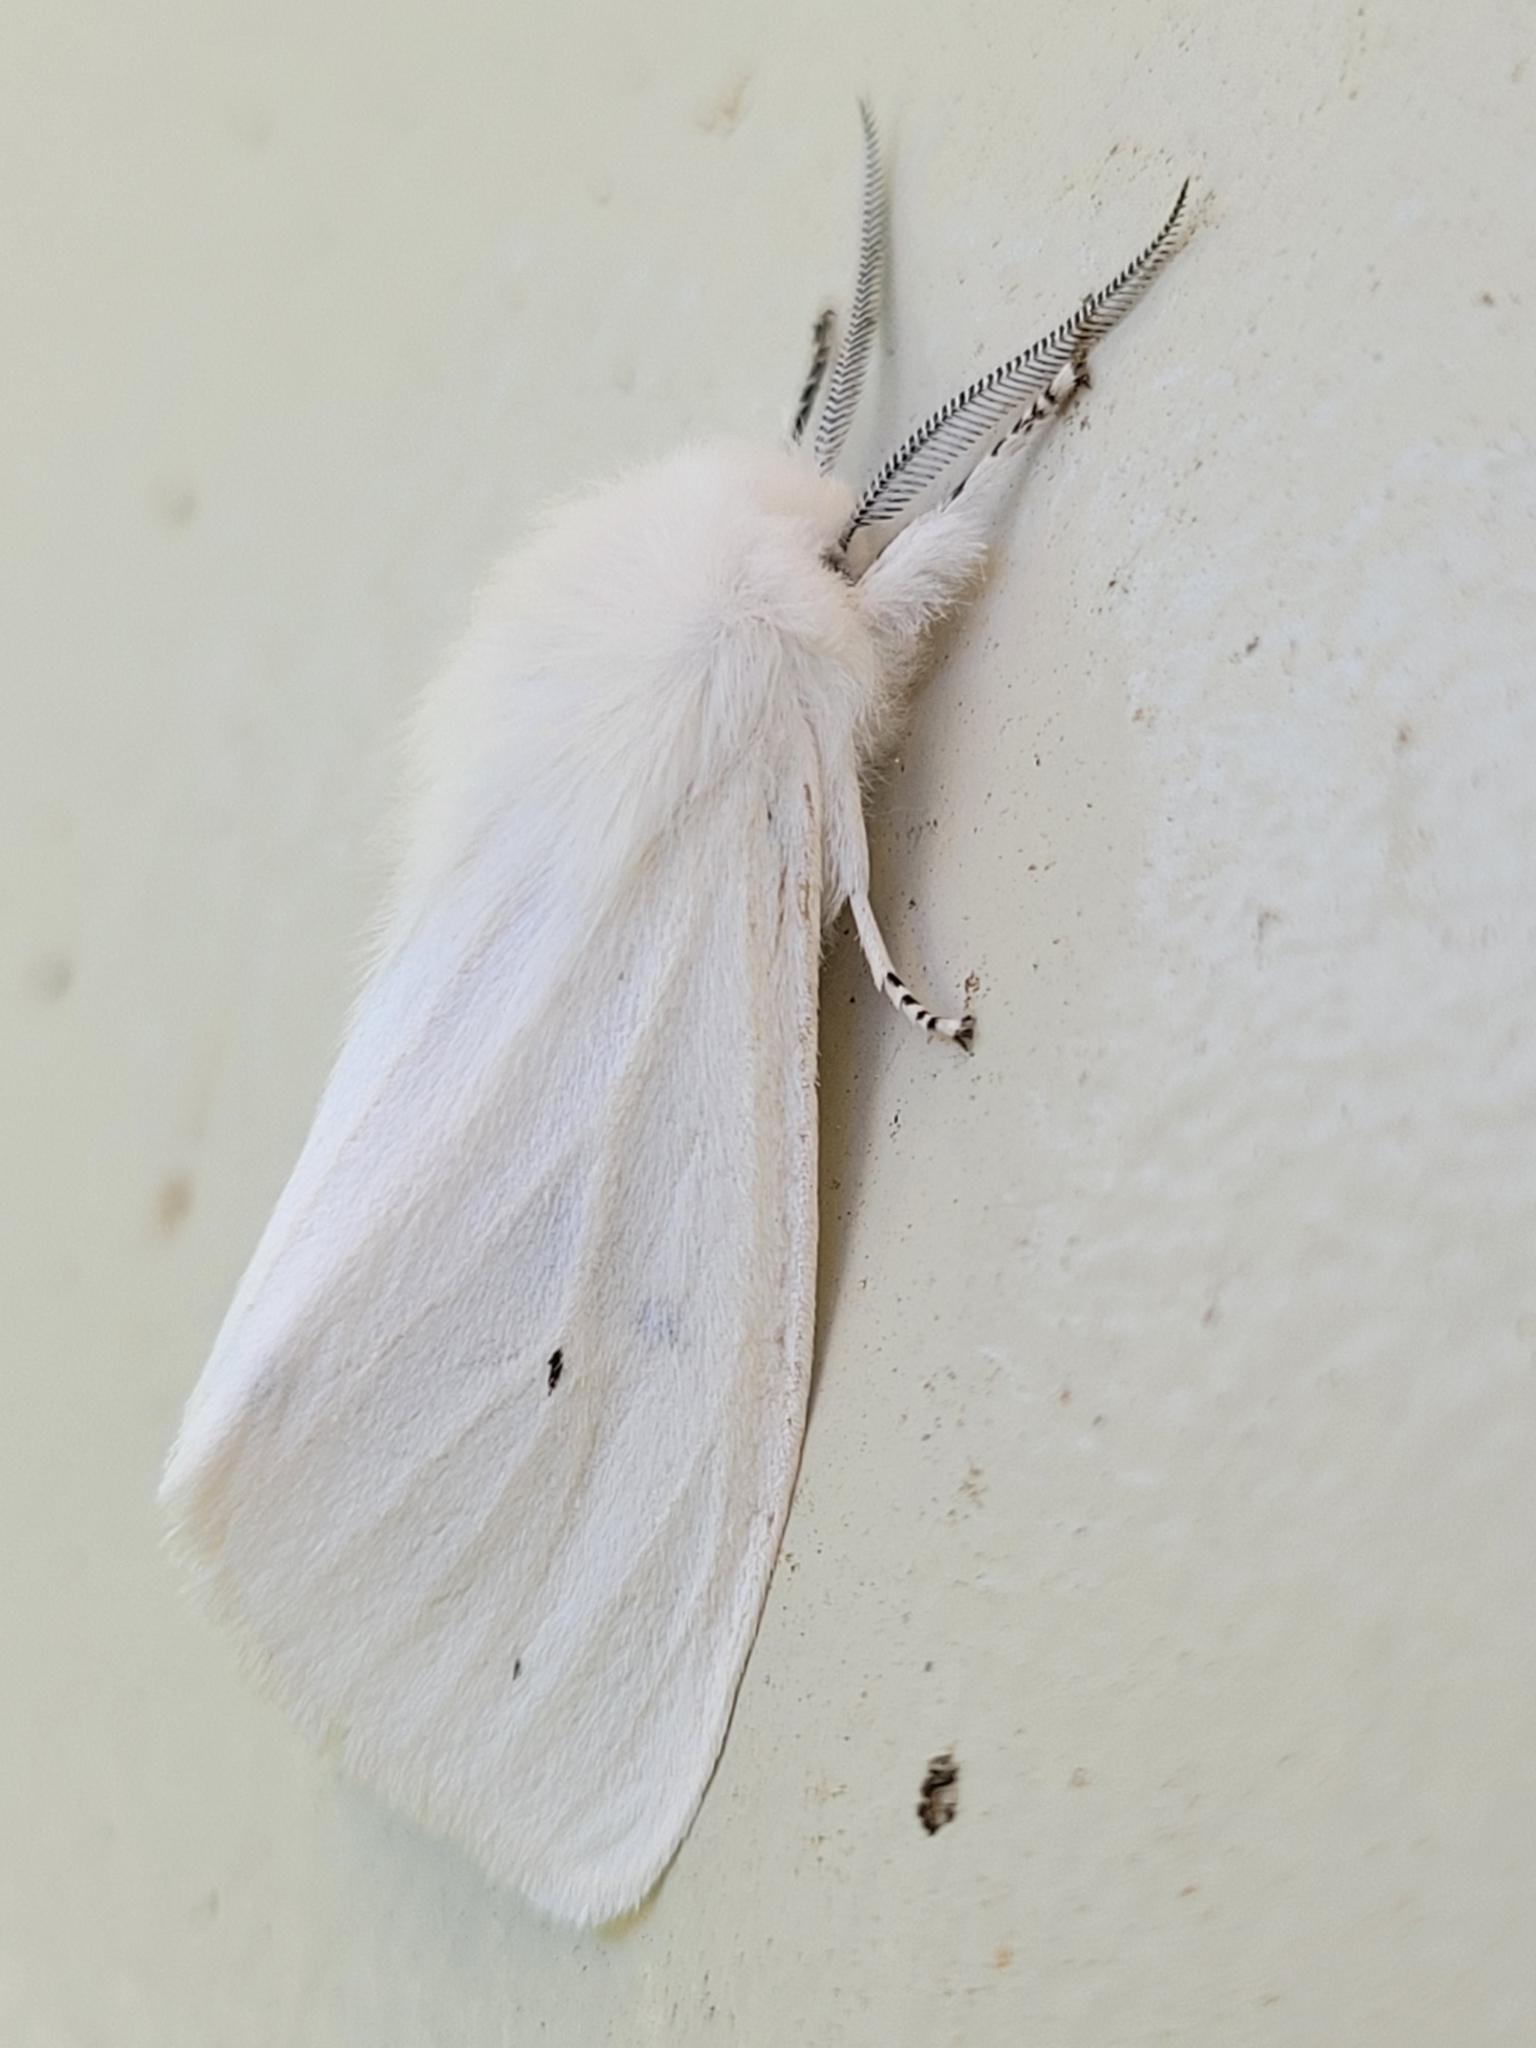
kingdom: Animalia
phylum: Arthropoda
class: Insecta
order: Lepidoptera
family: Erebidae
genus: Spilosoma
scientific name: Spilosoma virginica
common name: Virginia tiger moth
